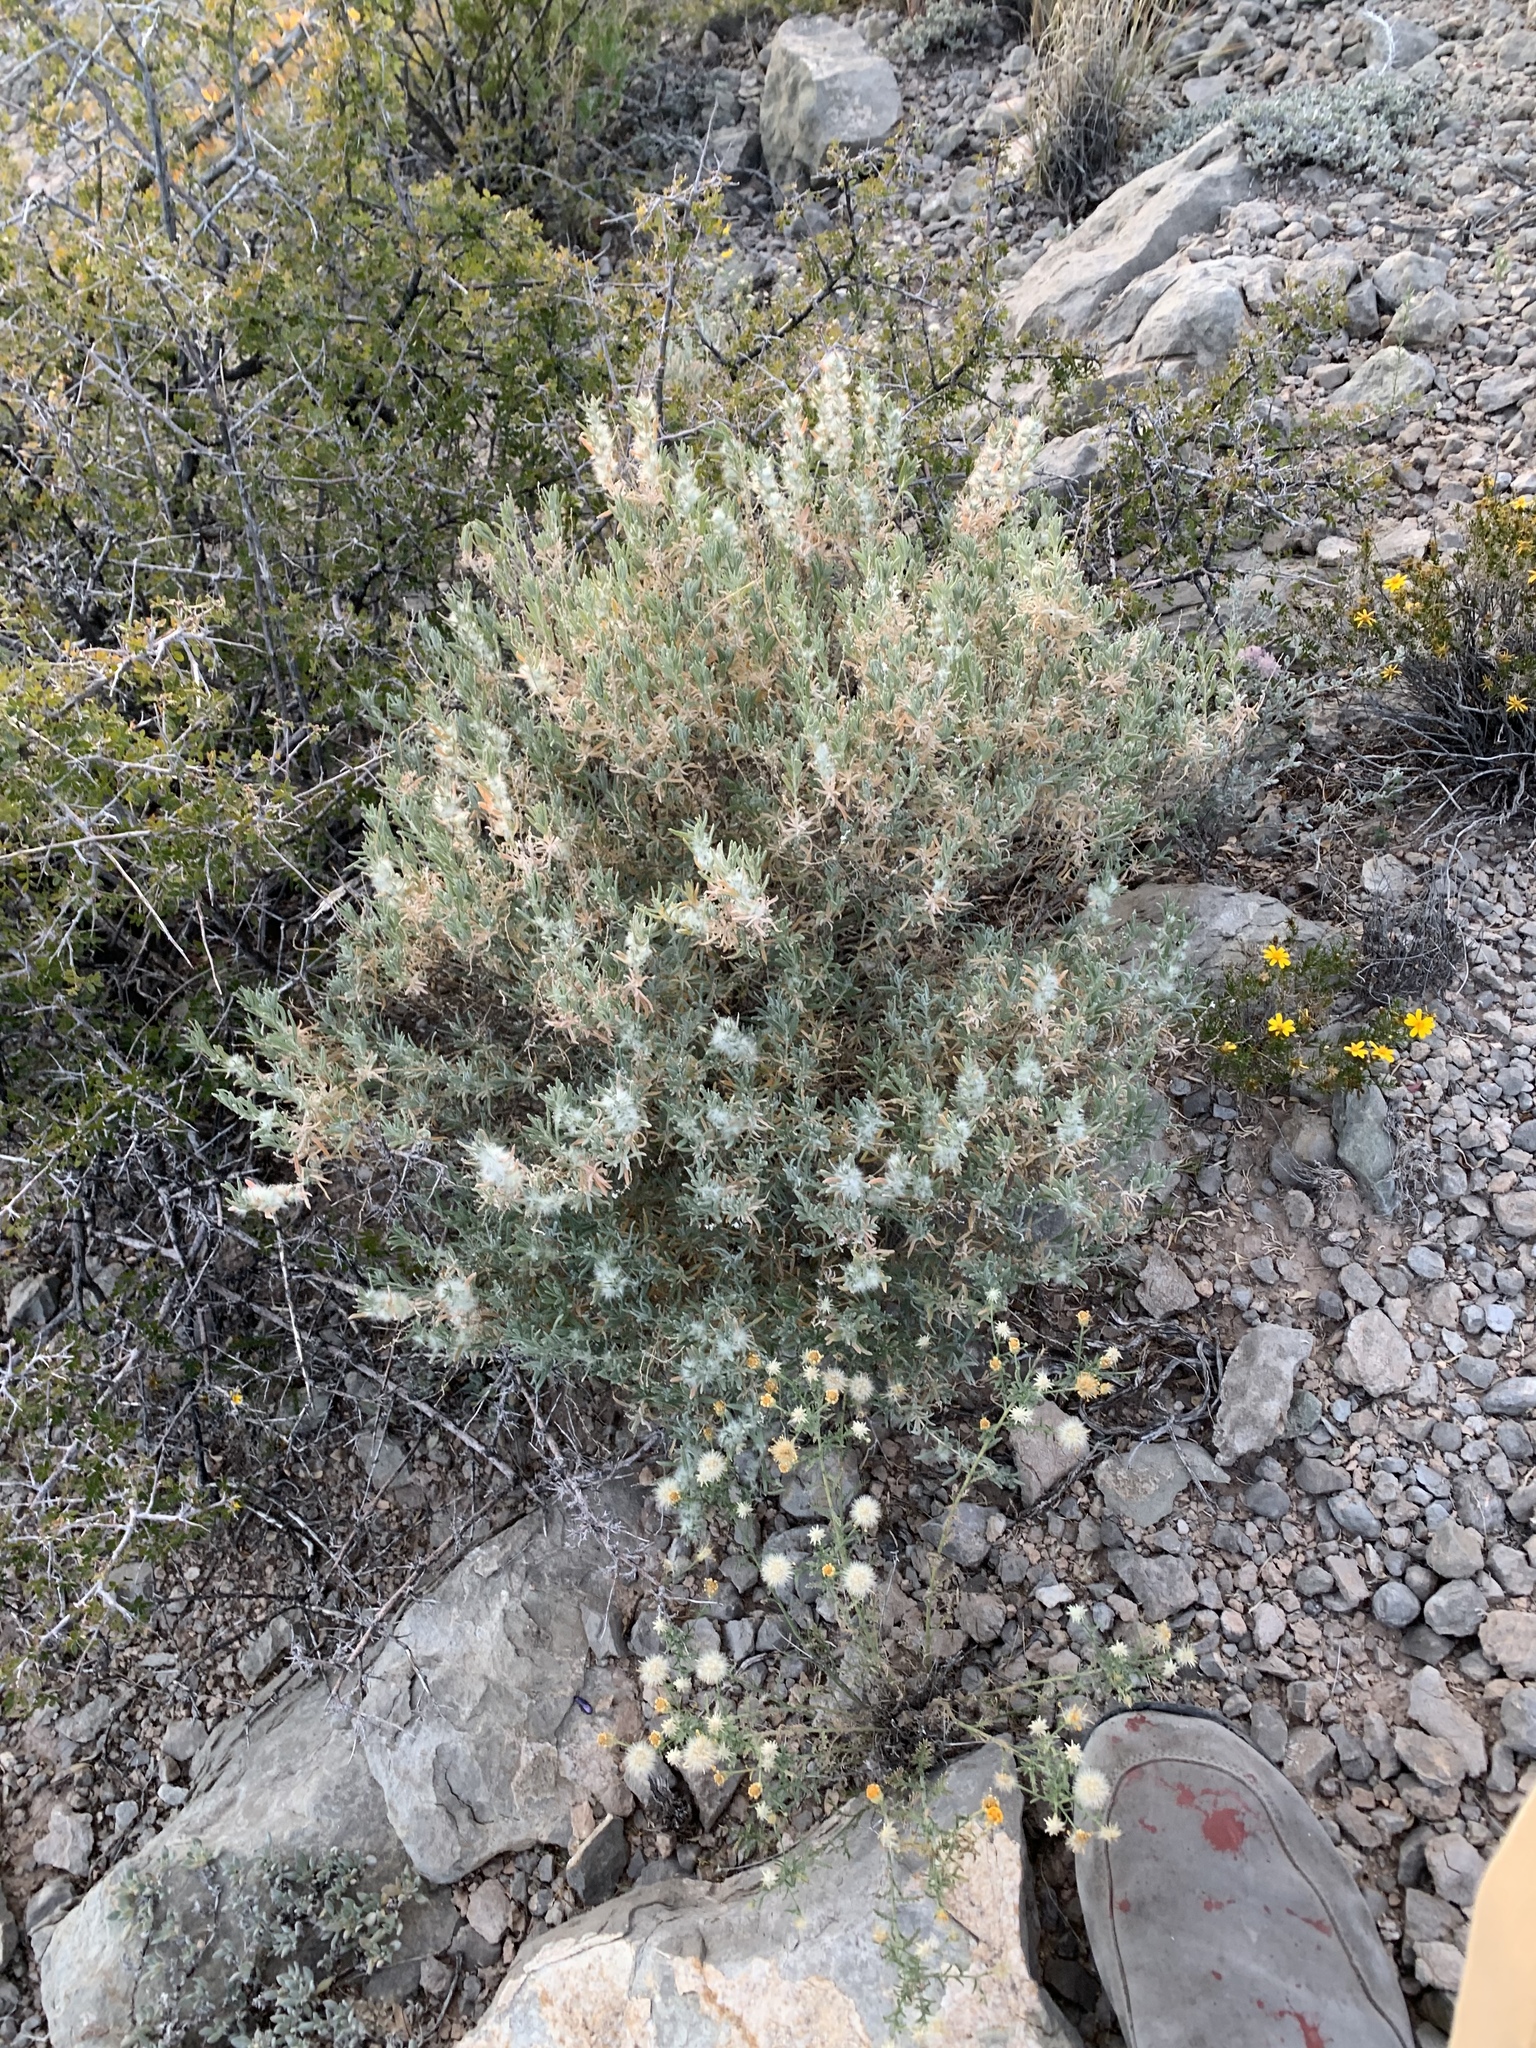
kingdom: Plantae
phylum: Tracheophyta
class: Magnoliopsida
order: Caryophyllales
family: Amaranthaceae
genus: Krascheninnikovia
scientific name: Krascheninnikovia lanata
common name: Winterfat
